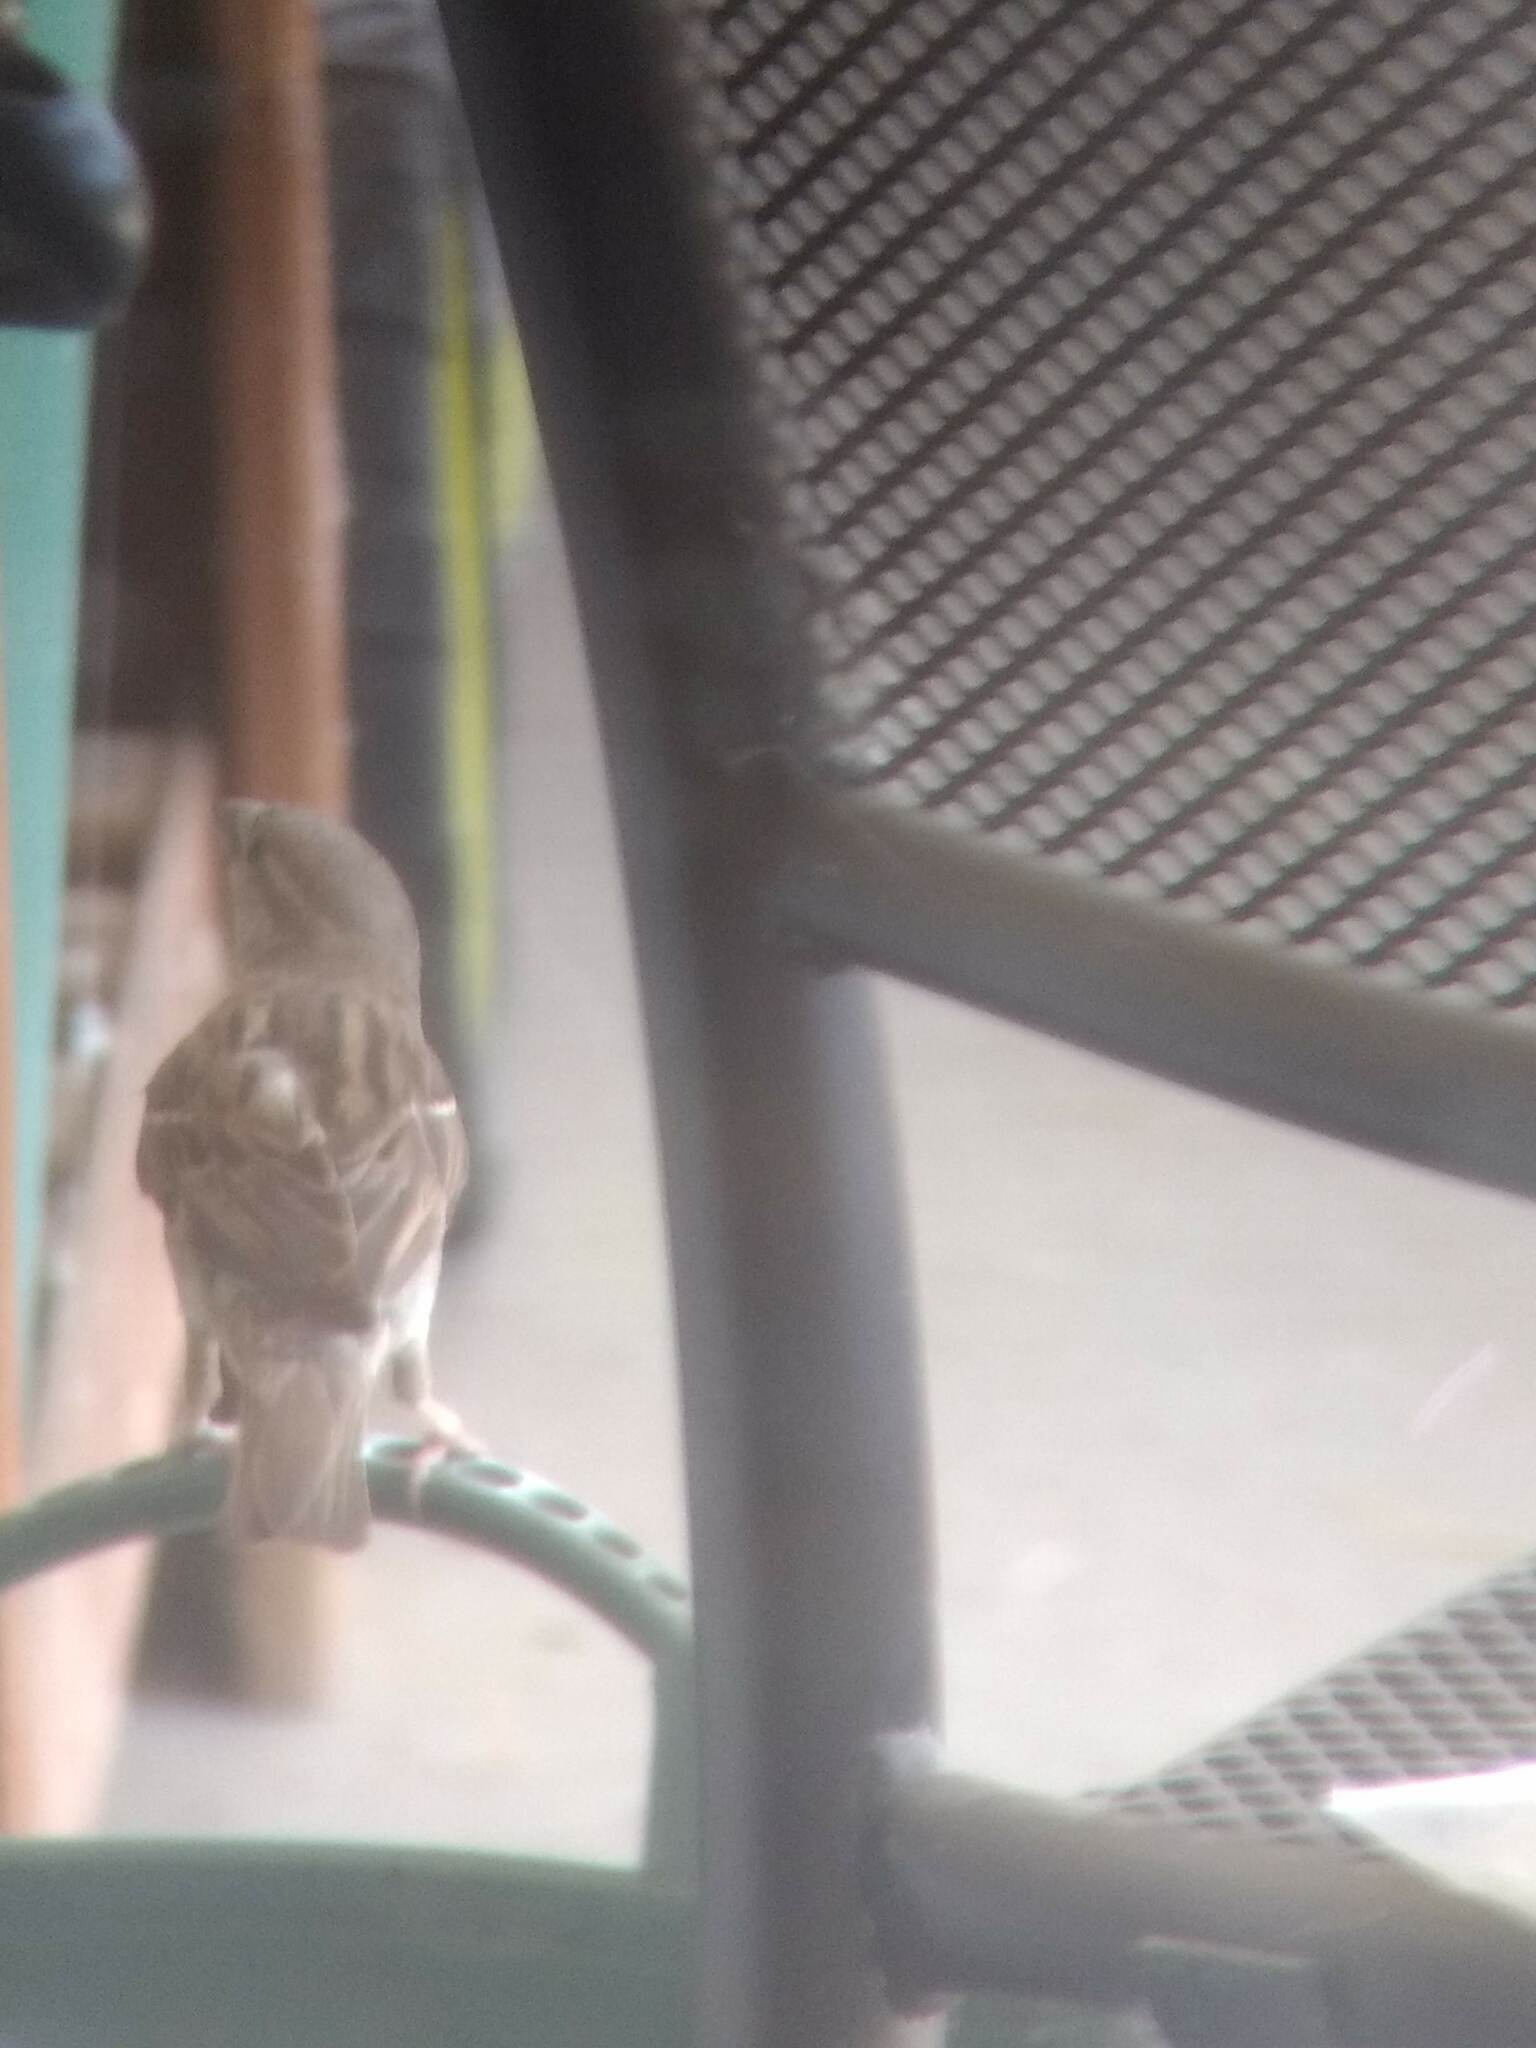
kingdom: Animalia
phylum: Chordata
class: Aves
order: Passeriformes
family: Passeridae
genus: Passer
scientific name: Passer domesticus
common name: House sparrow
